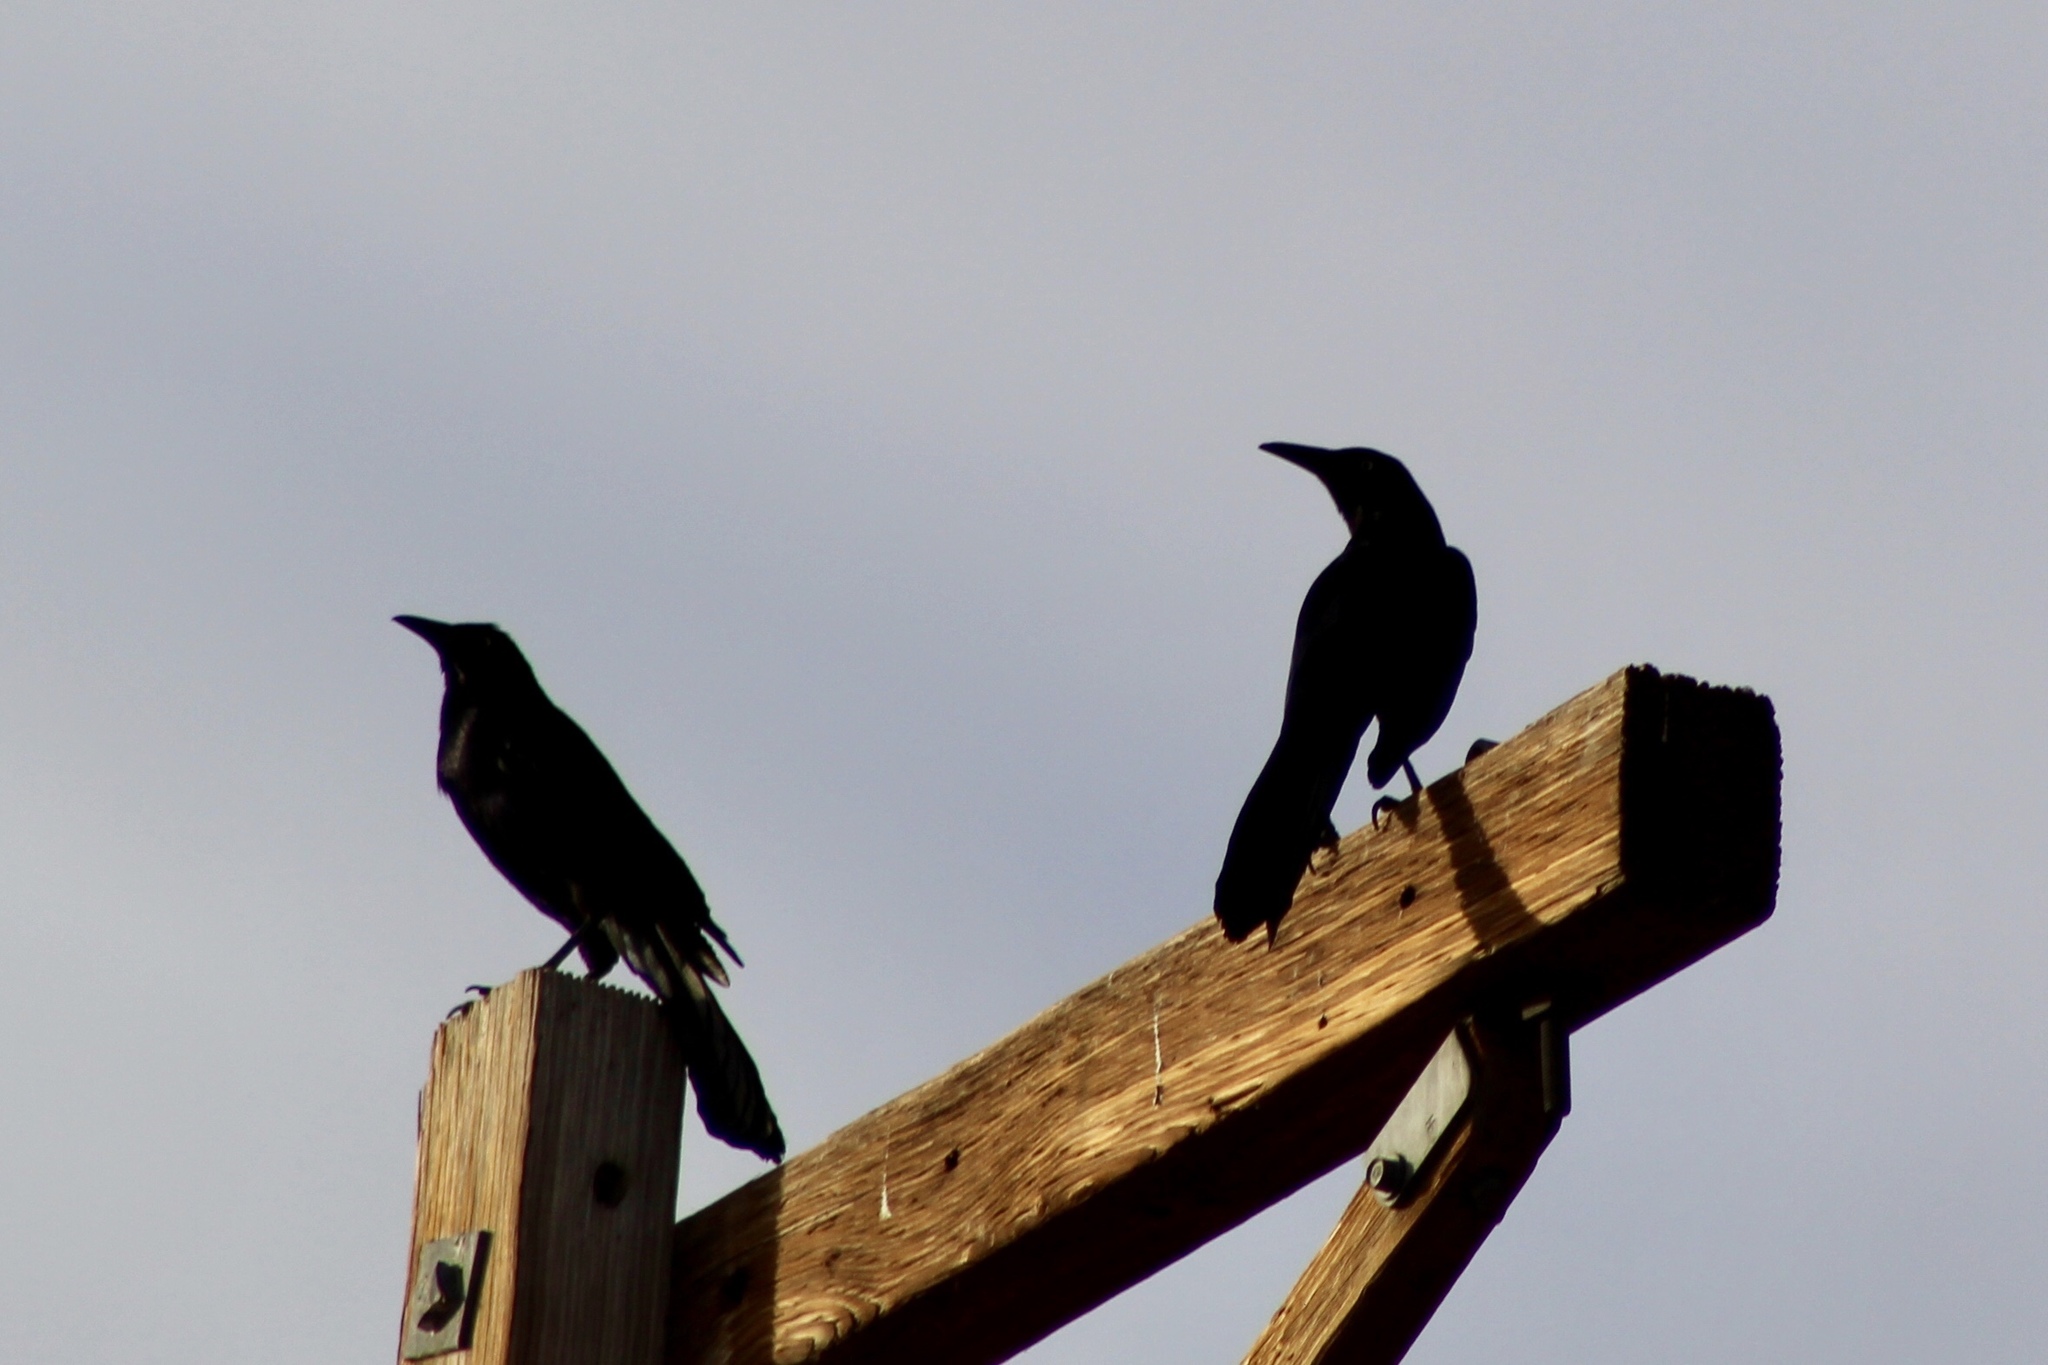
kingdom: Animalia
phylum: Chordata
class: Aves
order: Passeriformes
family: Icteridae
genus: Quiscalus
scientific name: Quiscalus mexicanus
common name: Great-tailed grackle
